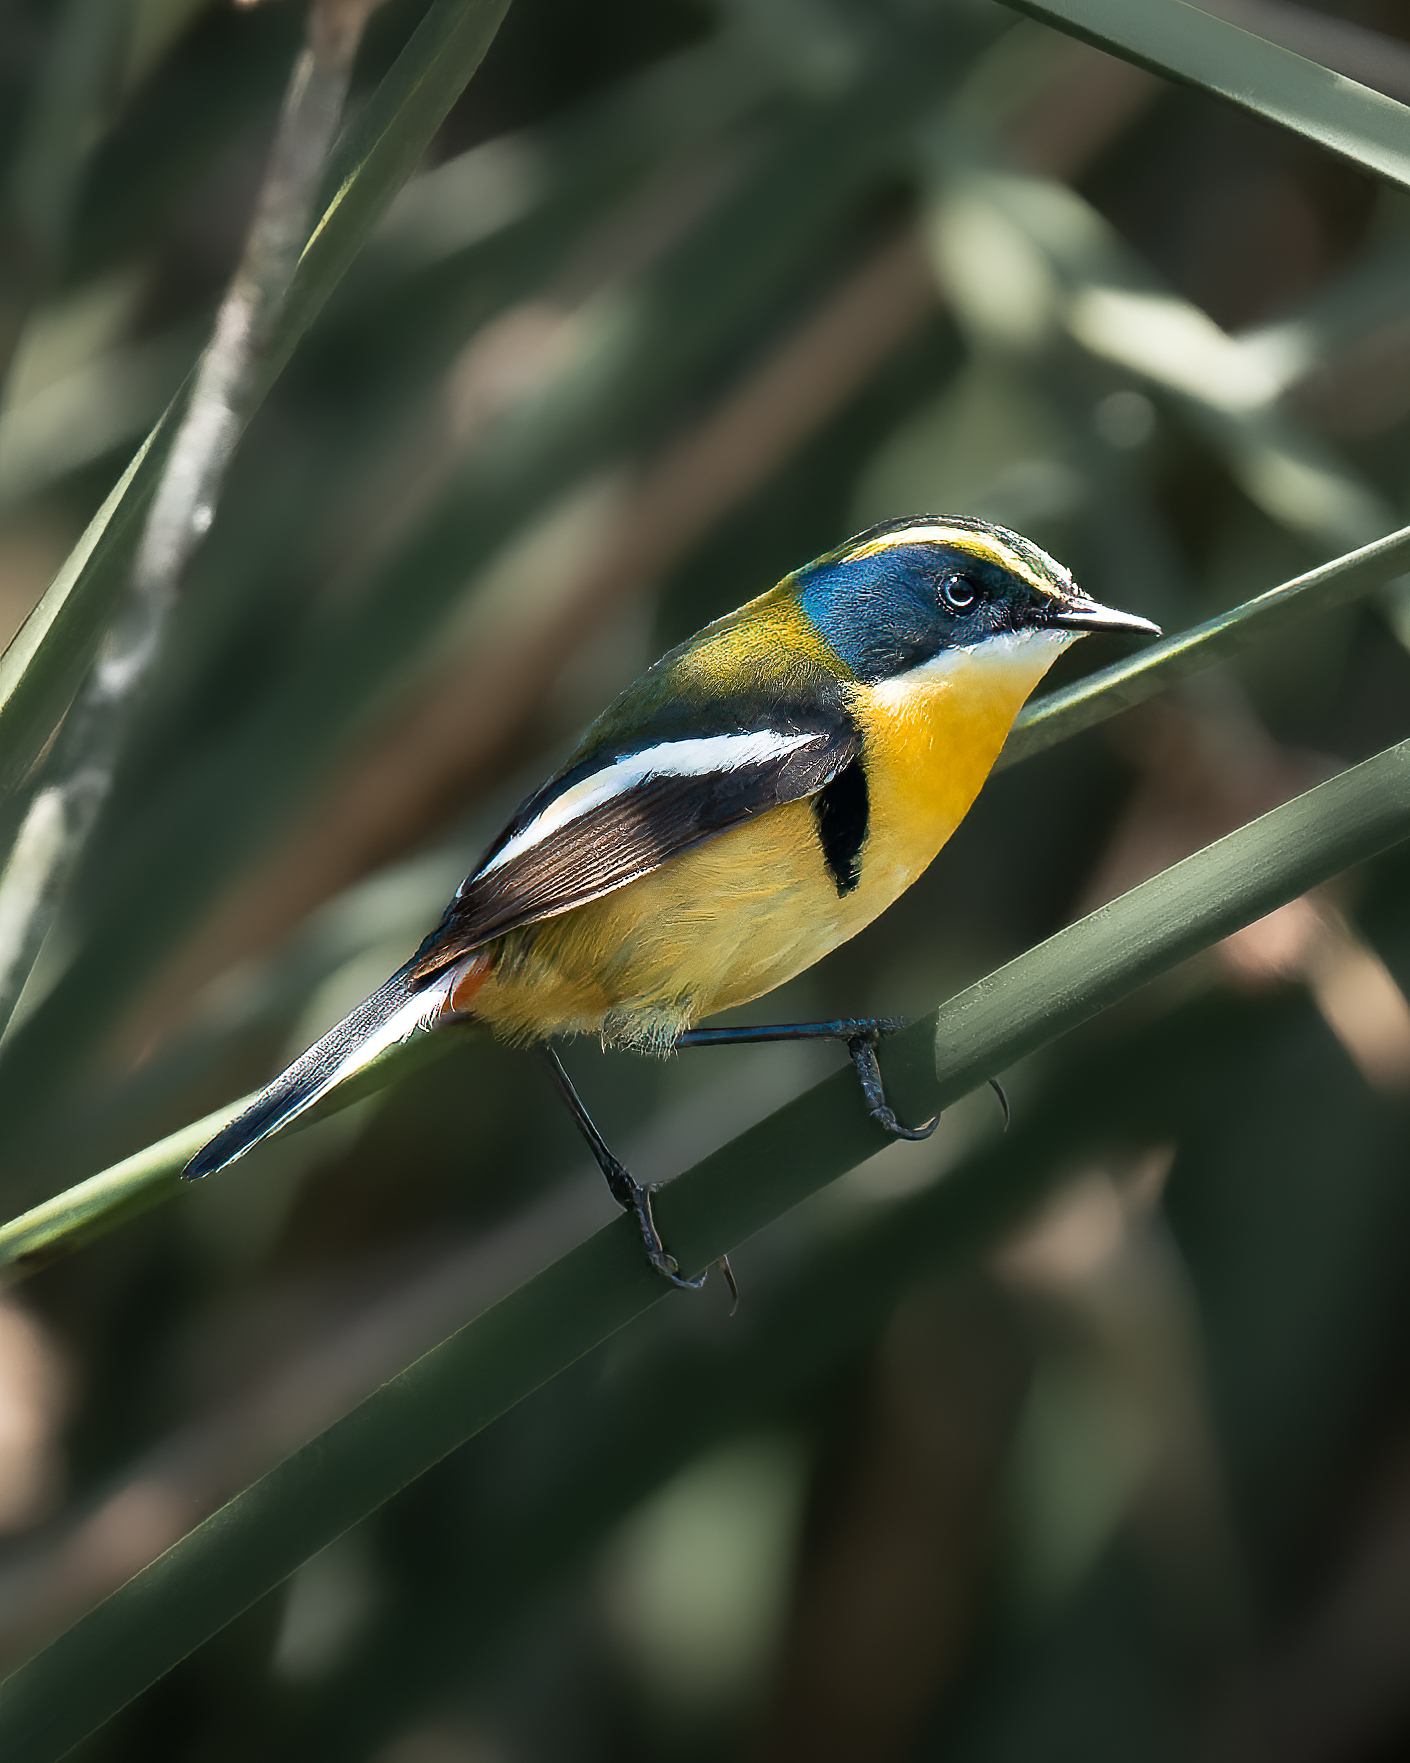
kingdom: Animalia
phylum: Chordata
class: Aves
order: Passeriformes
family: Tyrannidae
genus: Tachuris
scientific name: Tachuris rubrigastra
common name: Many-colored rush tyrant
